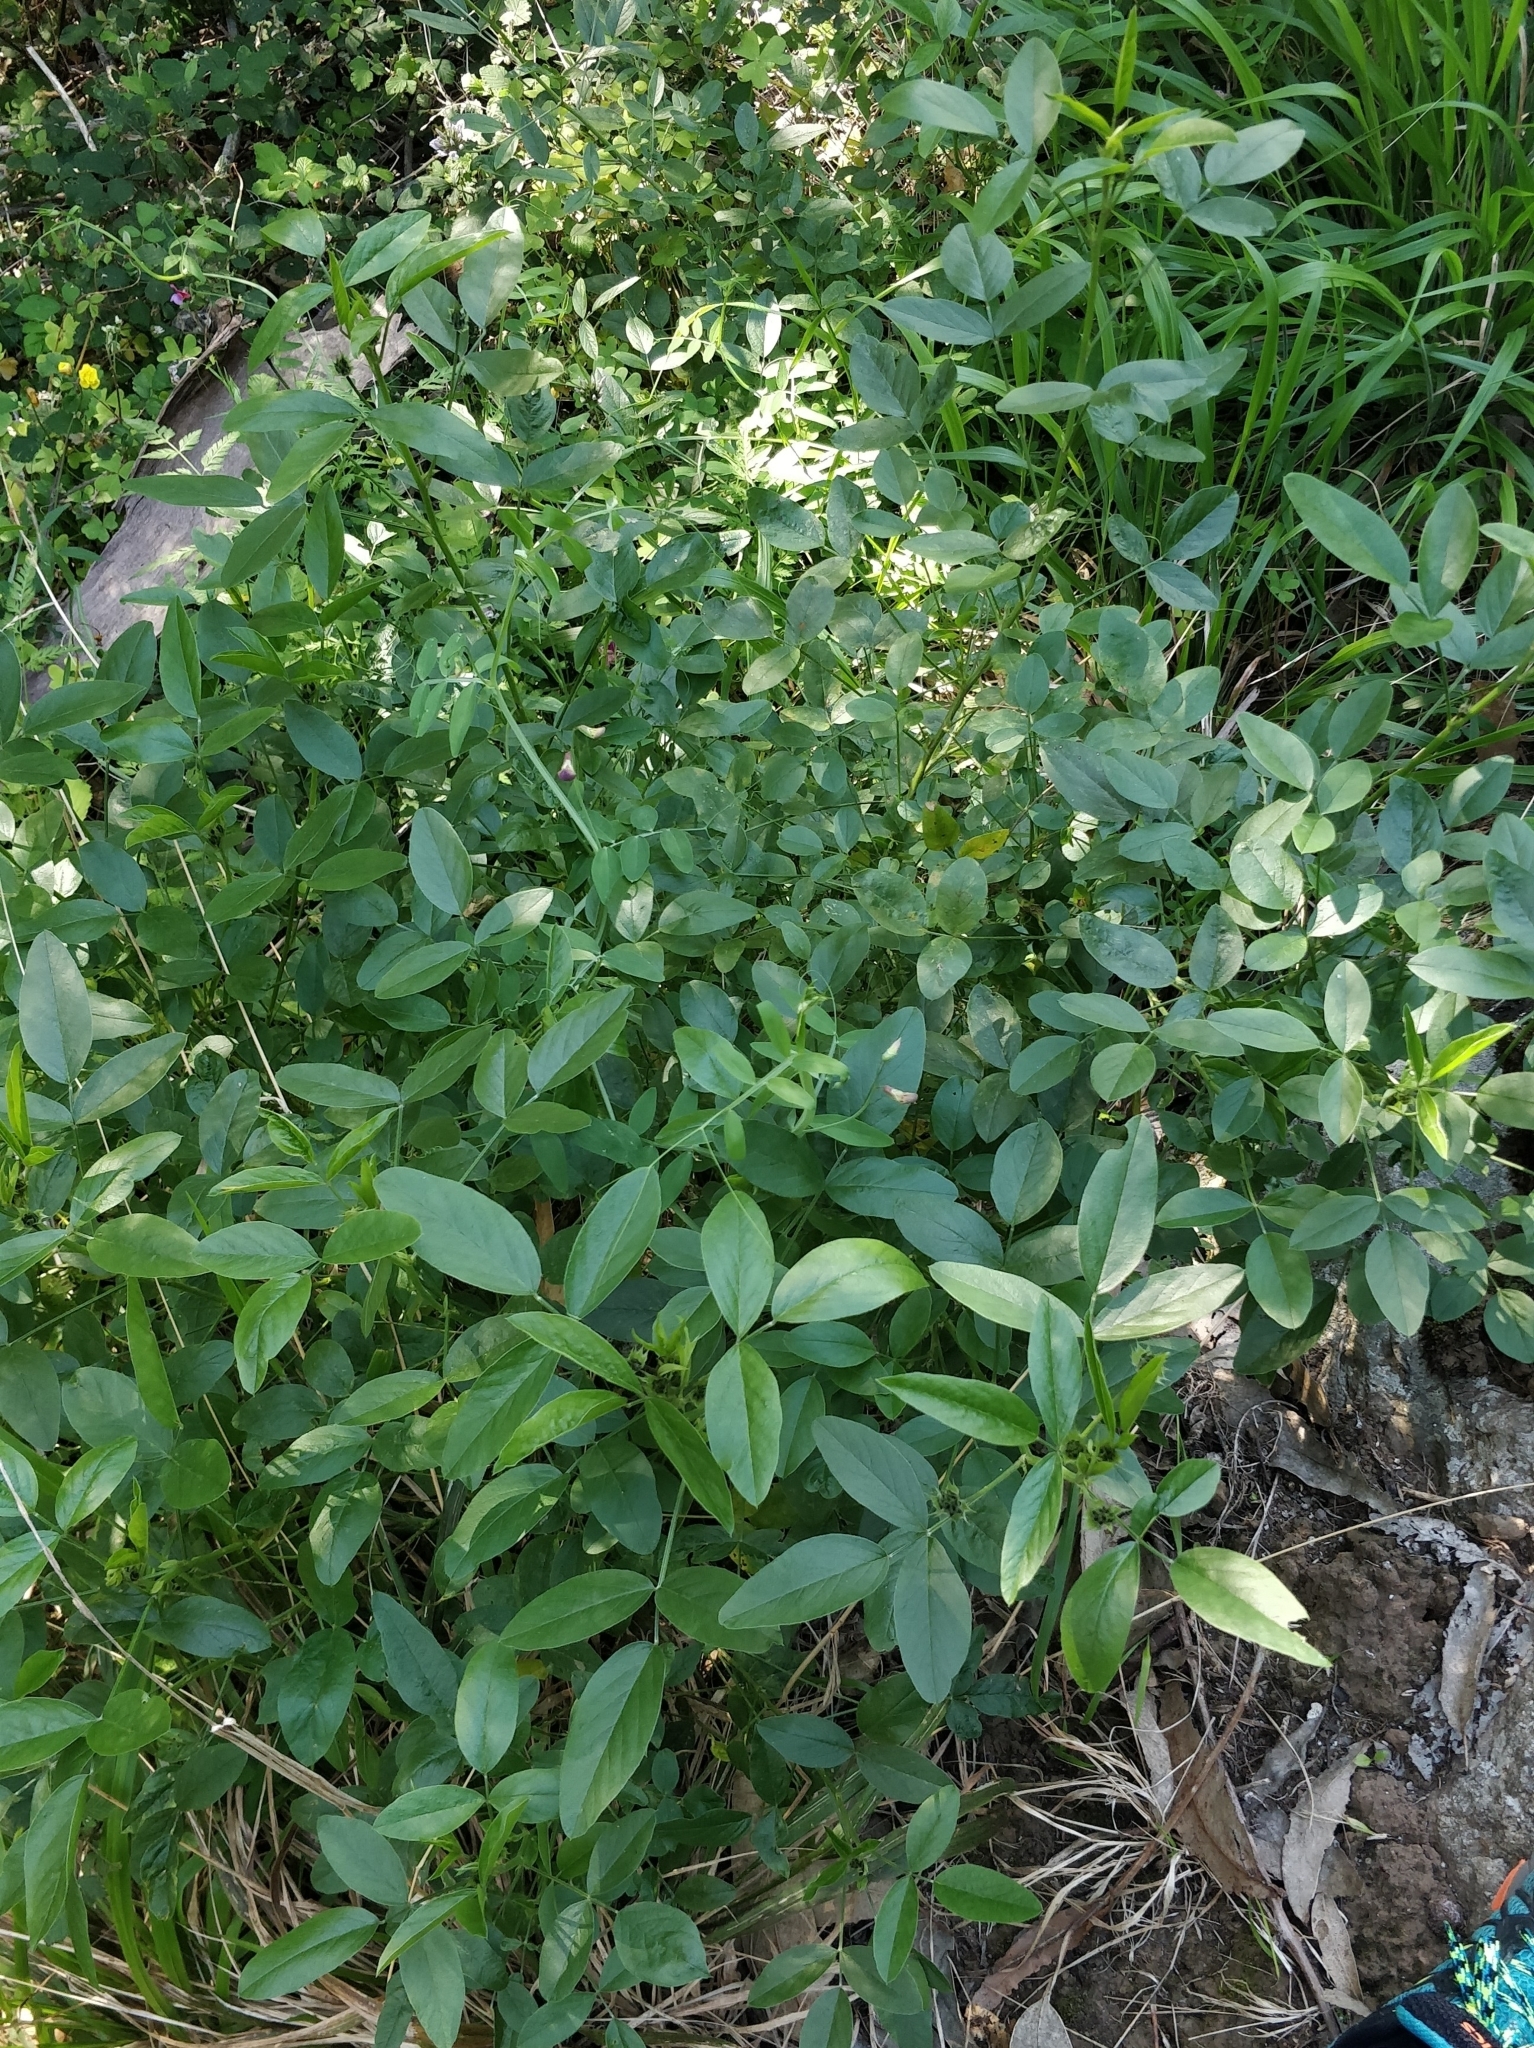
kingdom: Plantae
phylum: Tracheophyta
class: Magnoliopsida
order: Fabales
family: Fabaceae
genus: Bituminaria
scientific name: Bituminaria bituminosa
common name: Arabian pea
